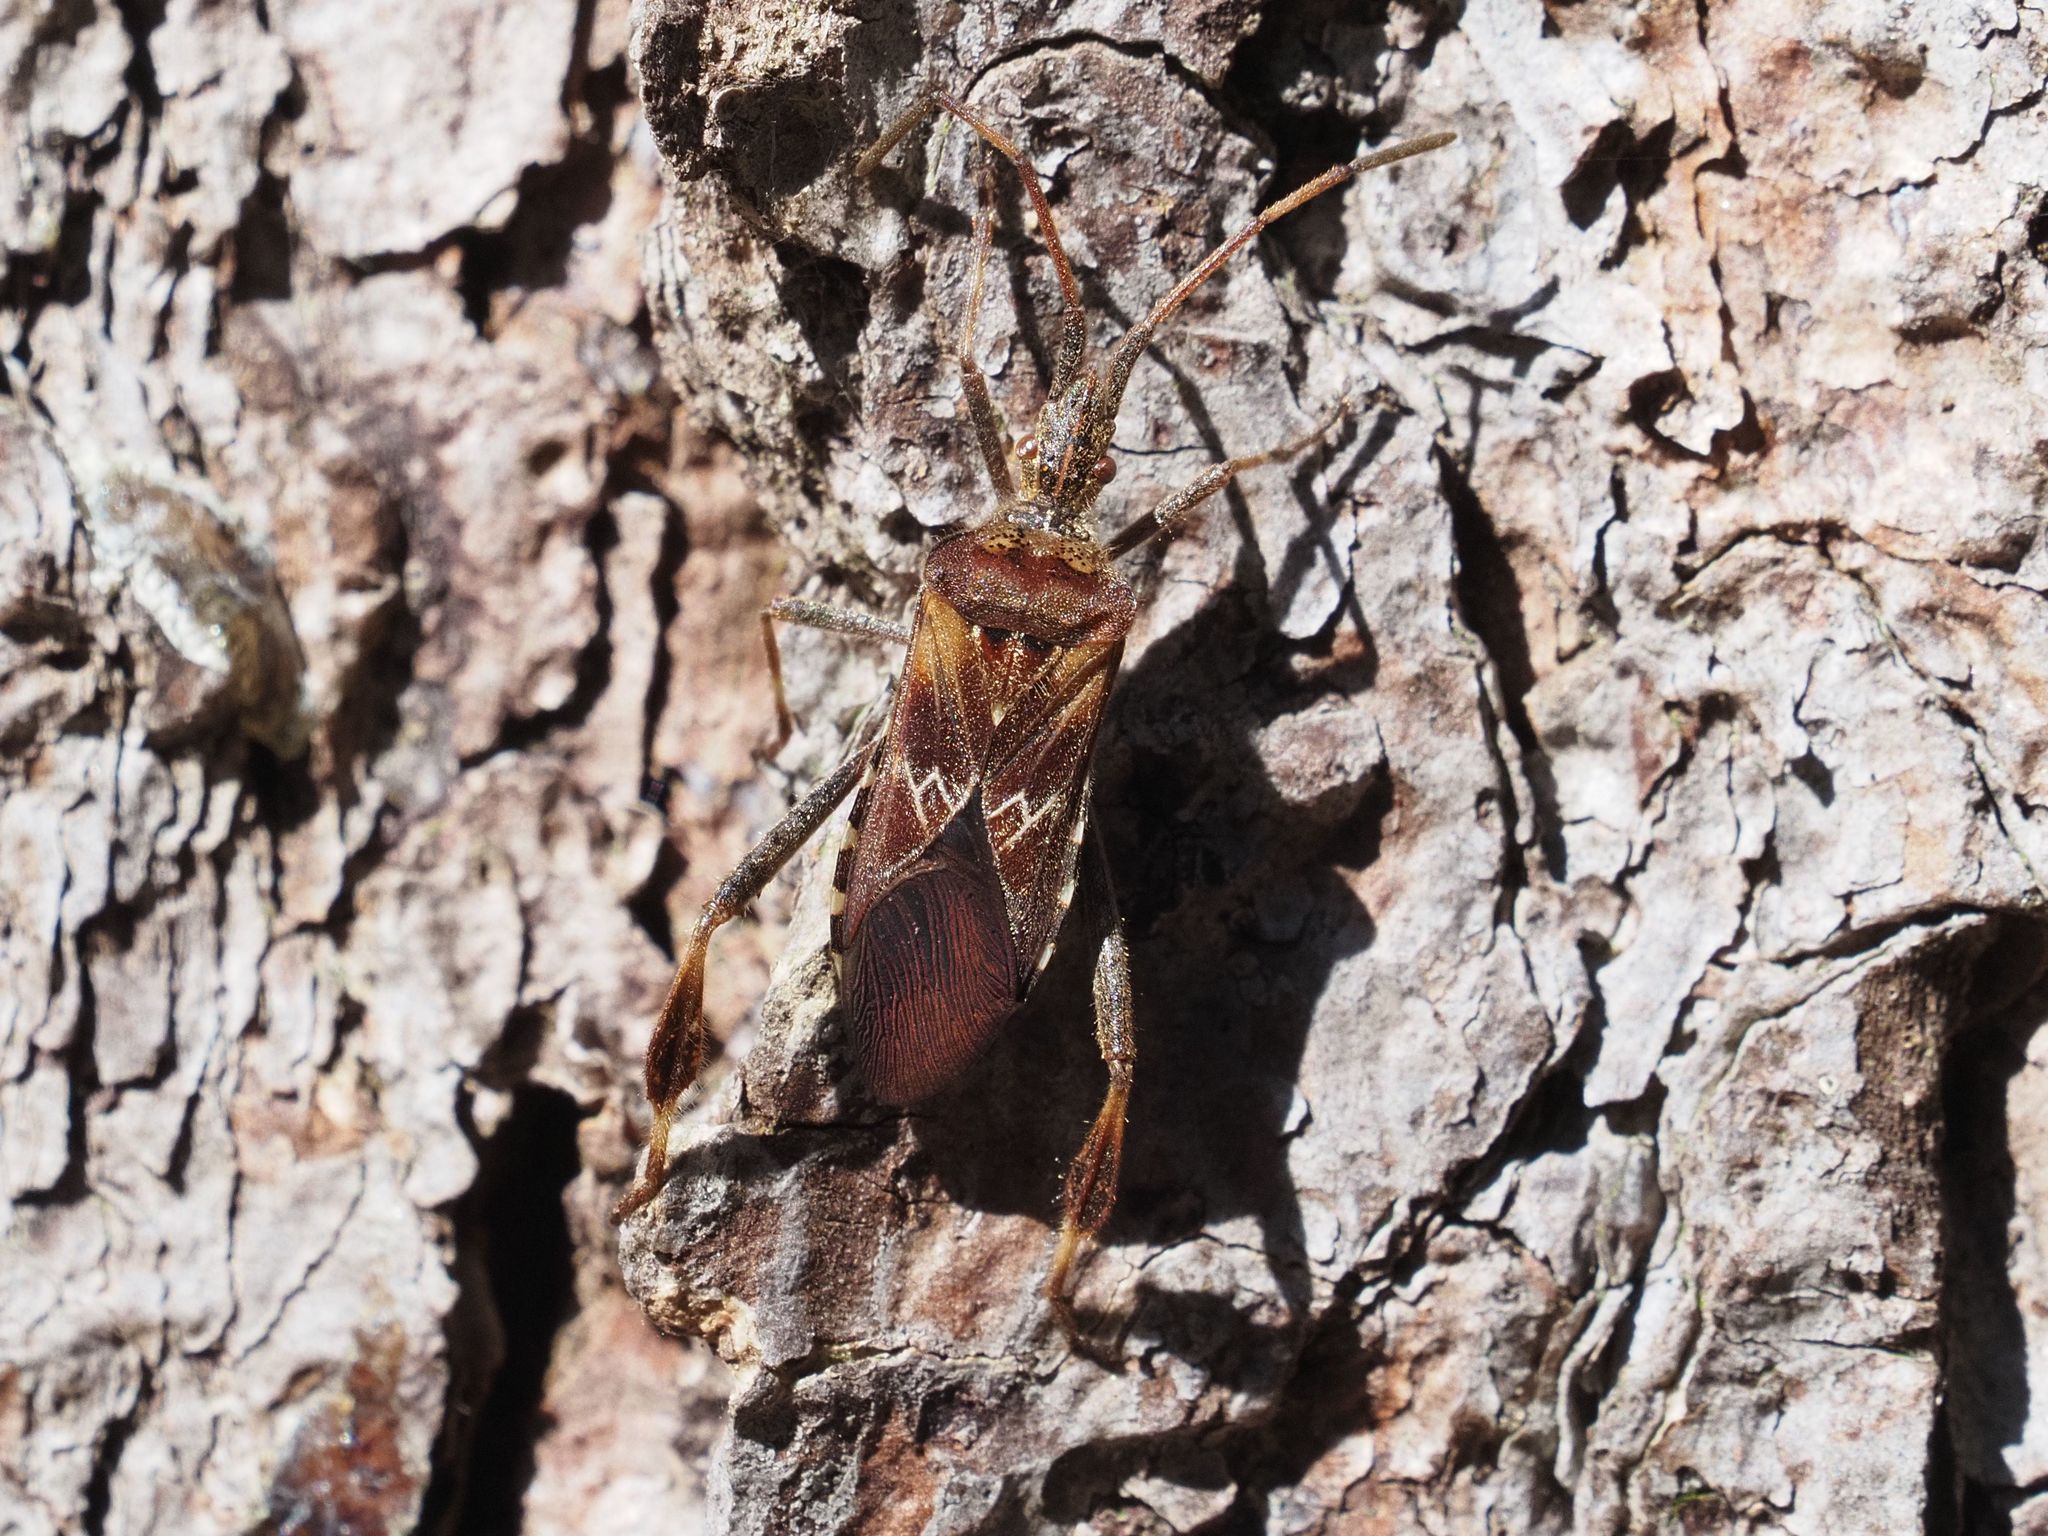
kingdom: Animalia
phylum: Arthropoda
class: Insecta
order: Hemiptera
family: Coreidae
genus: Leptoglossus
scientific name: Leptoglossus occidentalis
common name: Western conifer-seed bug
